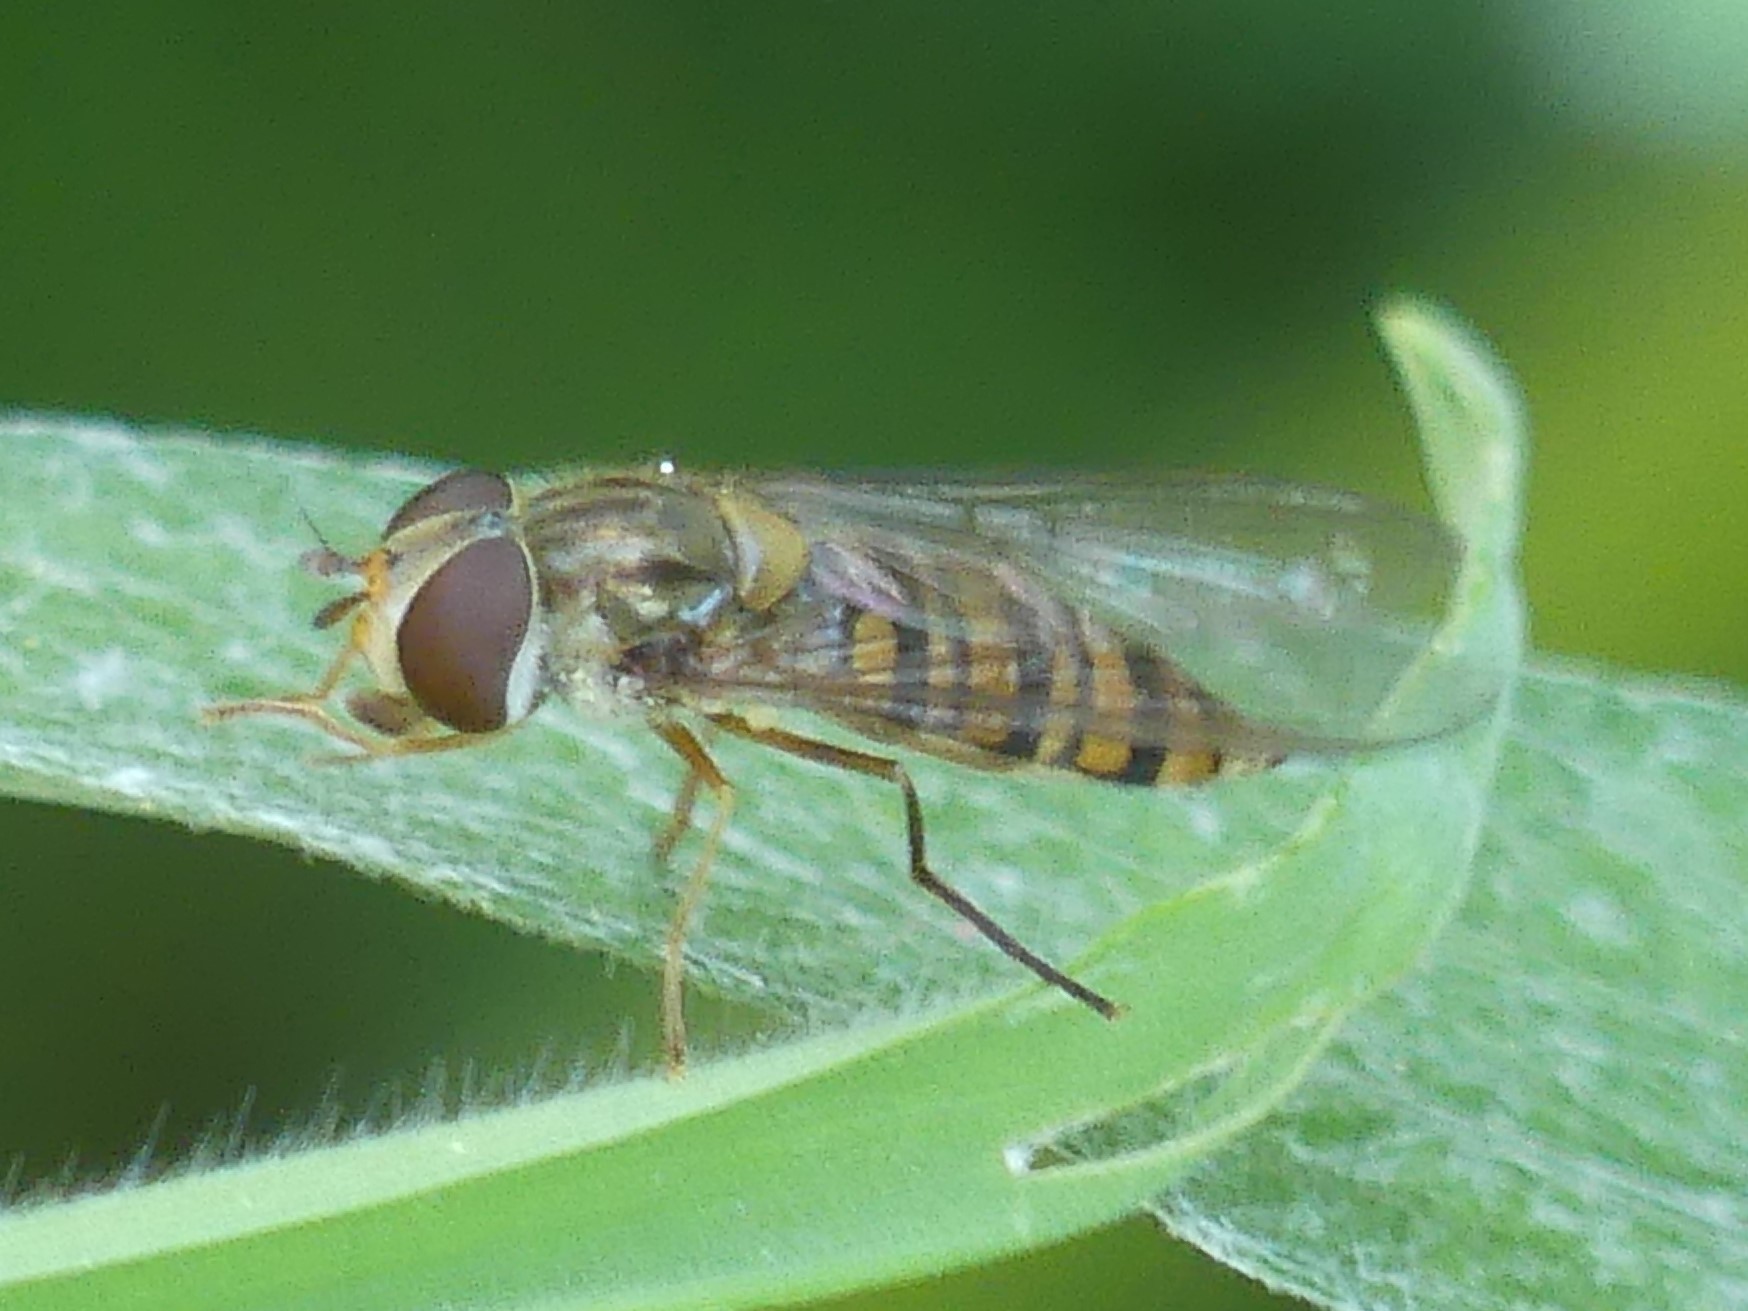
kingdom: Animalia
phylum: Arthropoda
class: Insecta
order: Diptera
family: Syrphidae
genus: Episyrphus
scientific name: Episyrphus balteatus
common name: Marmalade hoverfly
